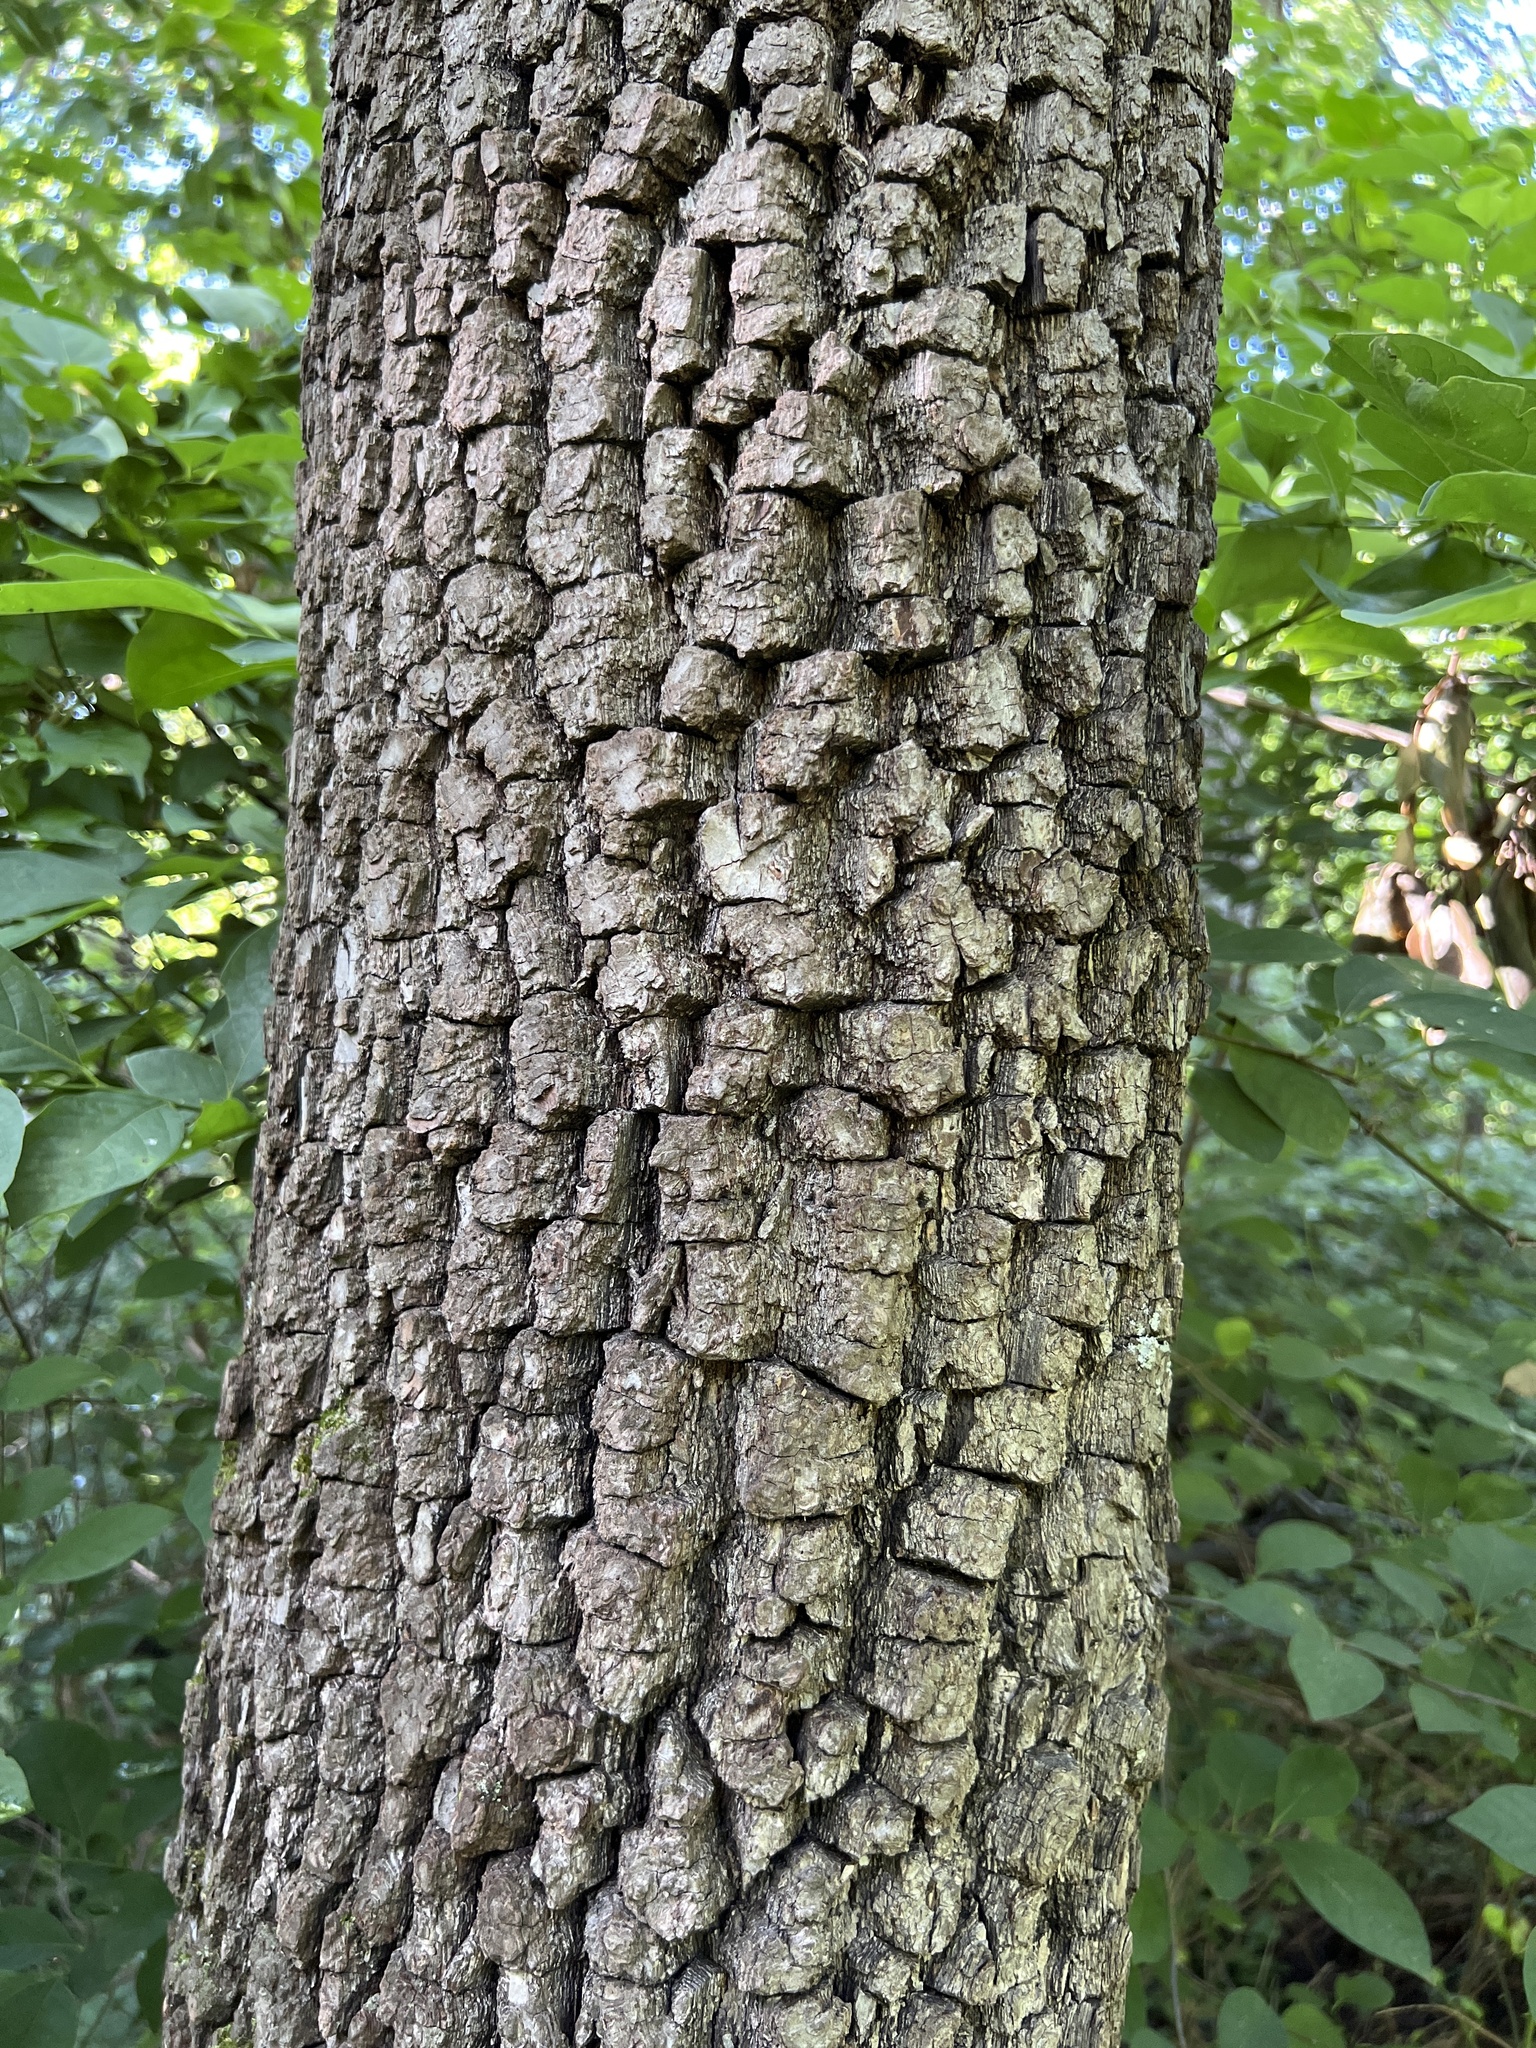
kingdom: Plantae
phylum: Tracheophyta
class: Magnoliopsida
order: Ericales
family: Ebenaceae
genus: Diospyros
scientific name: Diospyros virginiana
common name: Persimmon
